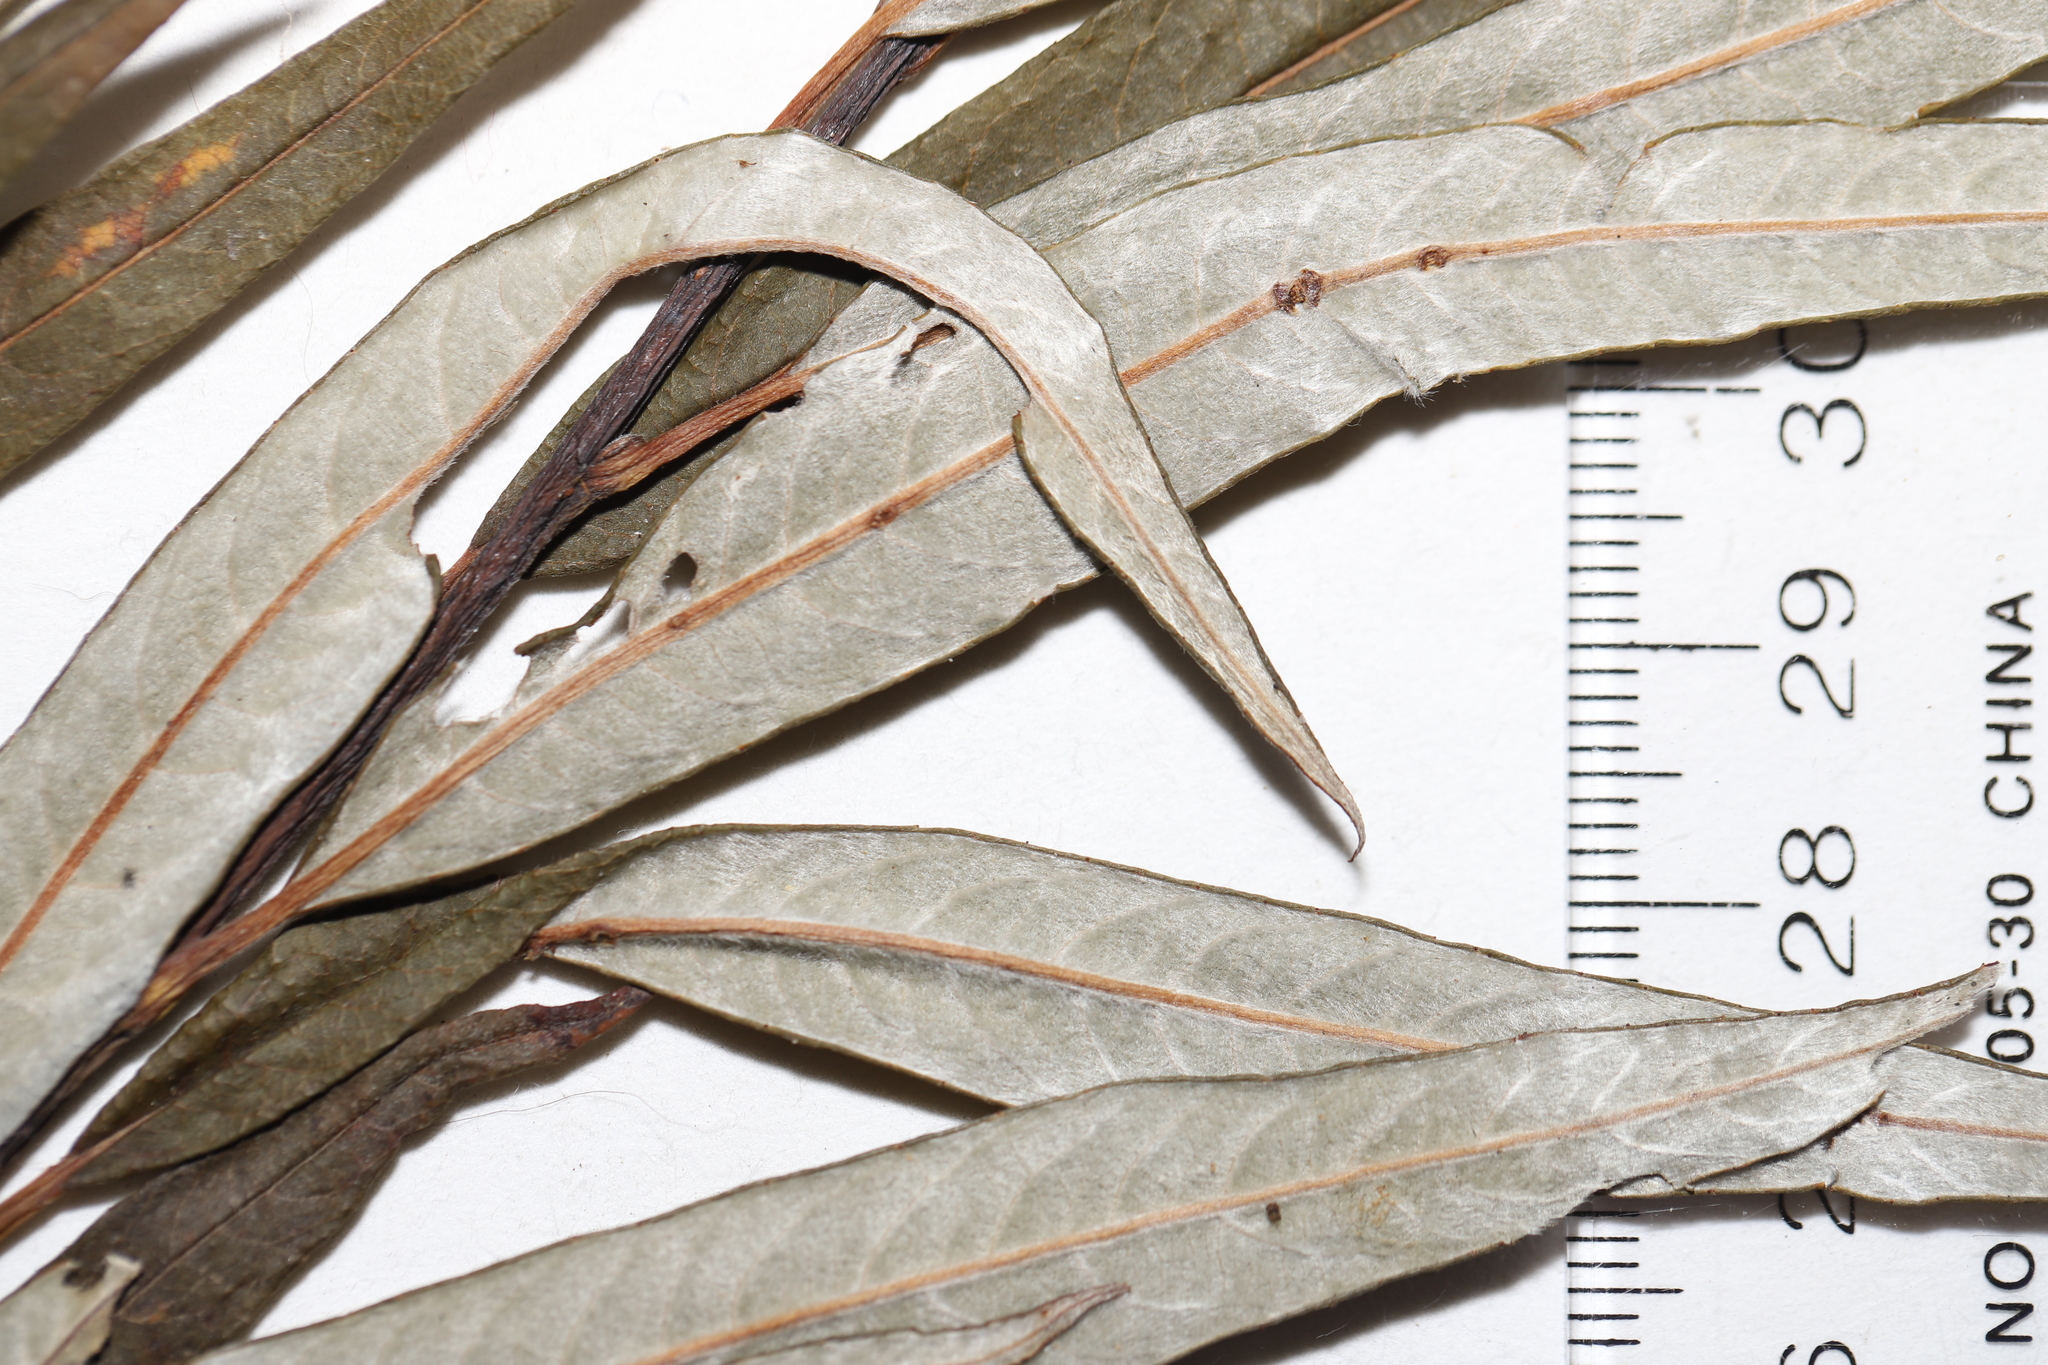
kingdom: Plantae
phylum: Tracheophyta
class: Magnoliopsida
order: Malpighiales
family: Salicaceae
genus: Salix
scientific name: Salix pellita
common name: Satiny willow
